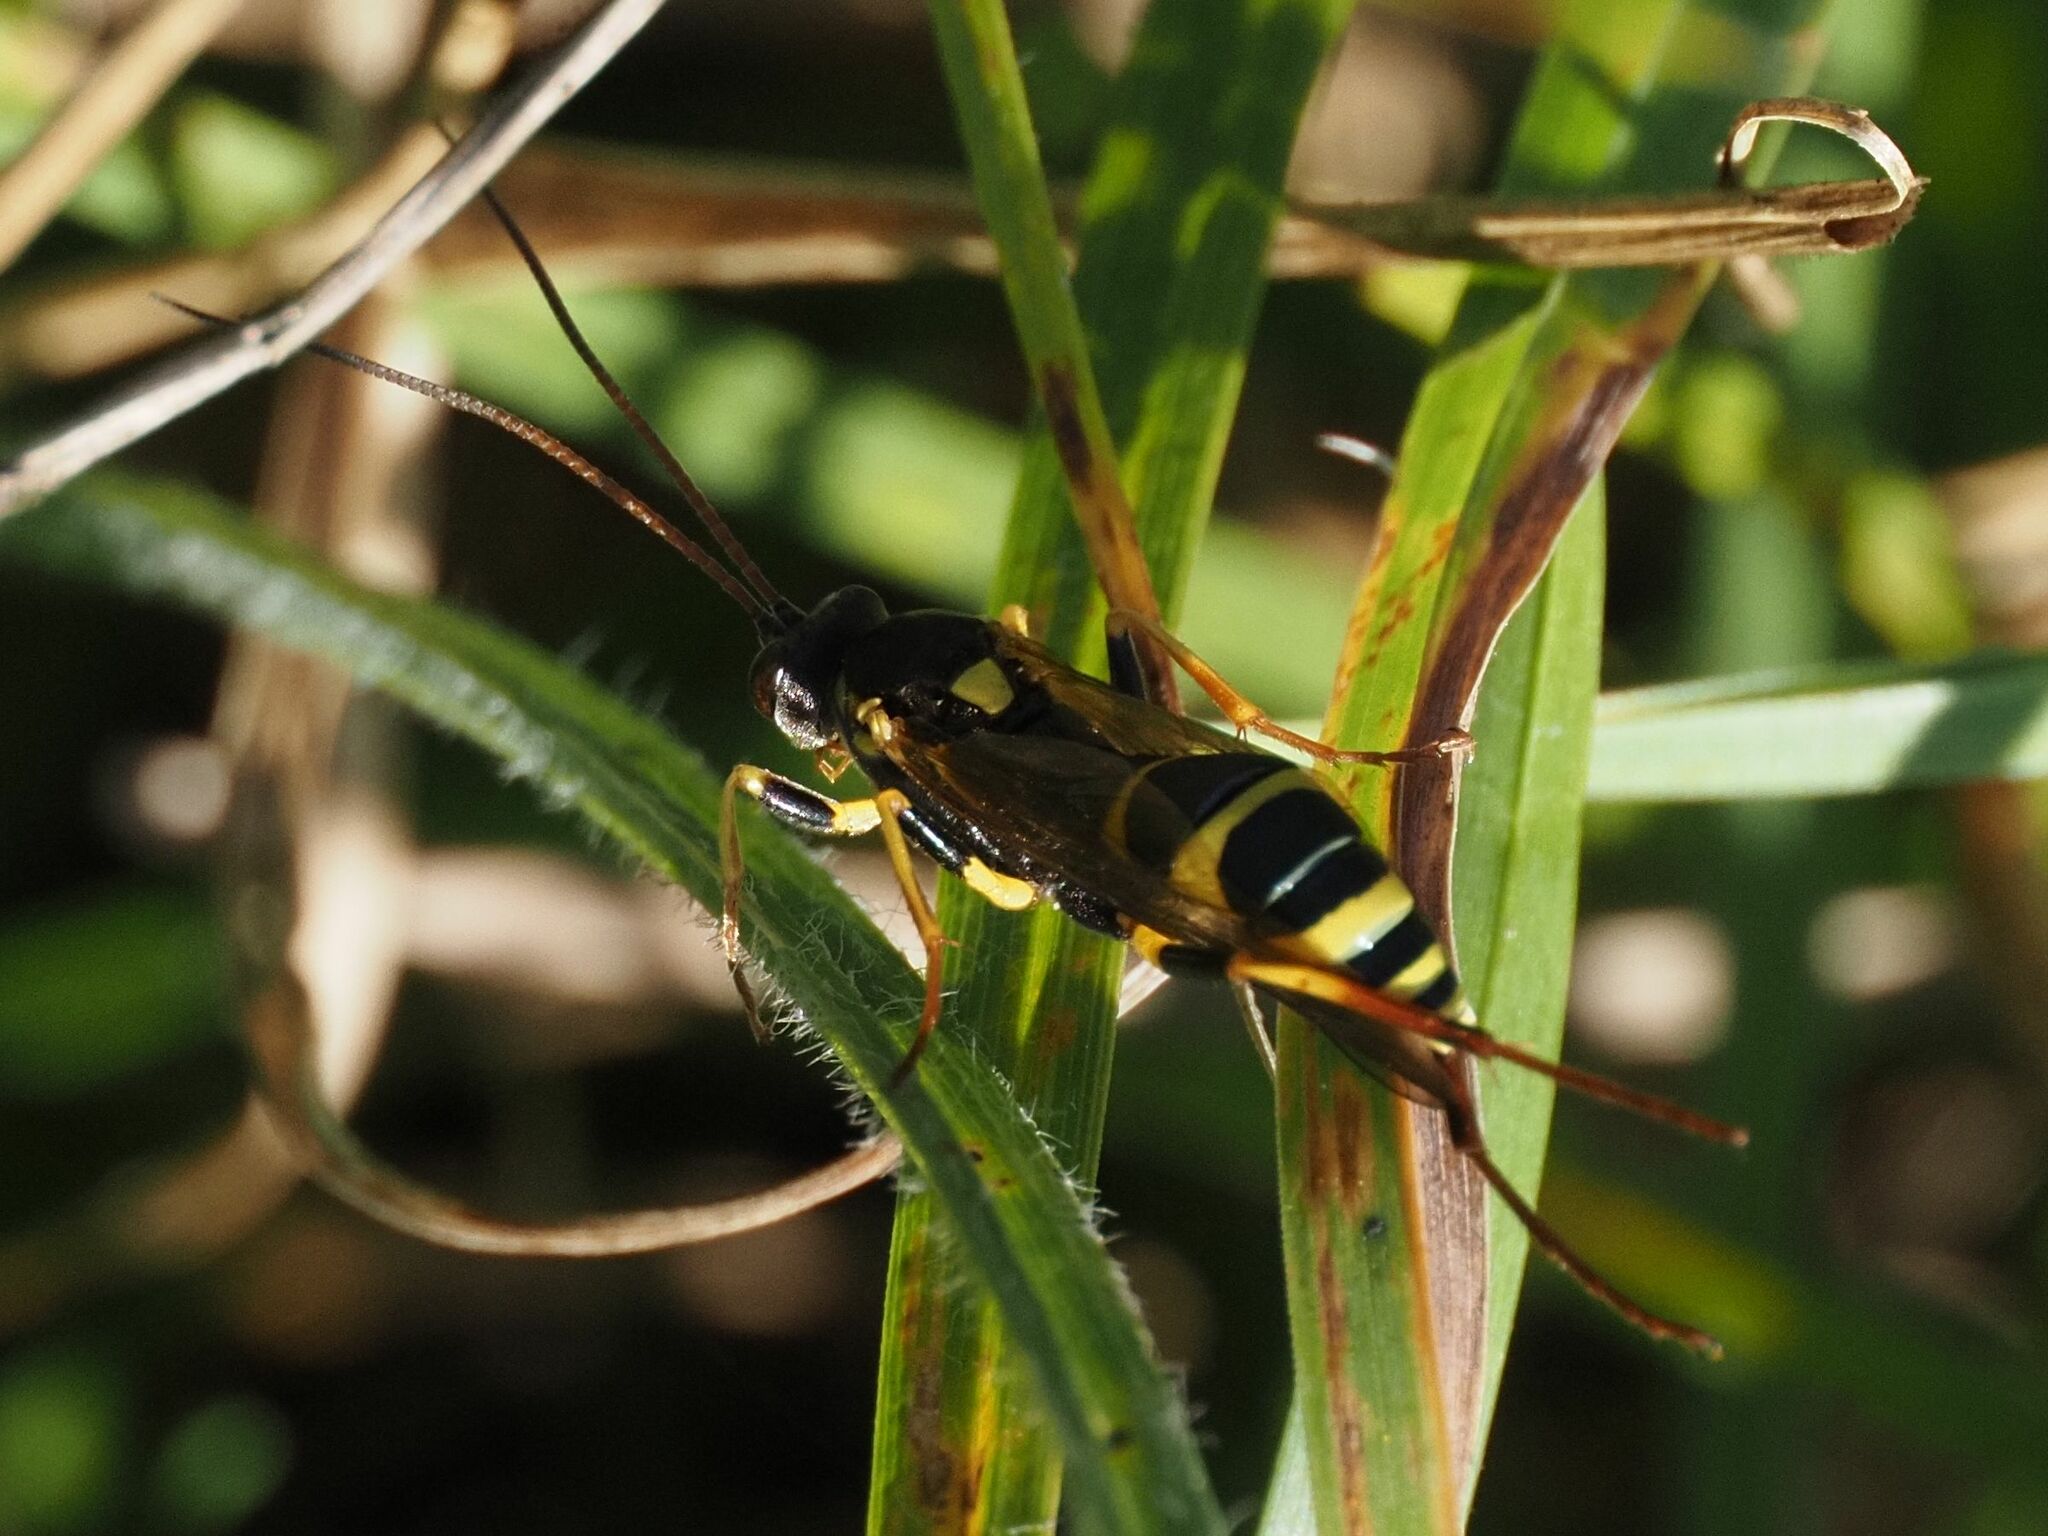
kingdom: Animalia
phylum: Arthropoda
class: Insecta
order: Hymenoptera
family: Ichneumonidae
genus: Amblyteles
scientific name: Amblyteles armatorius
